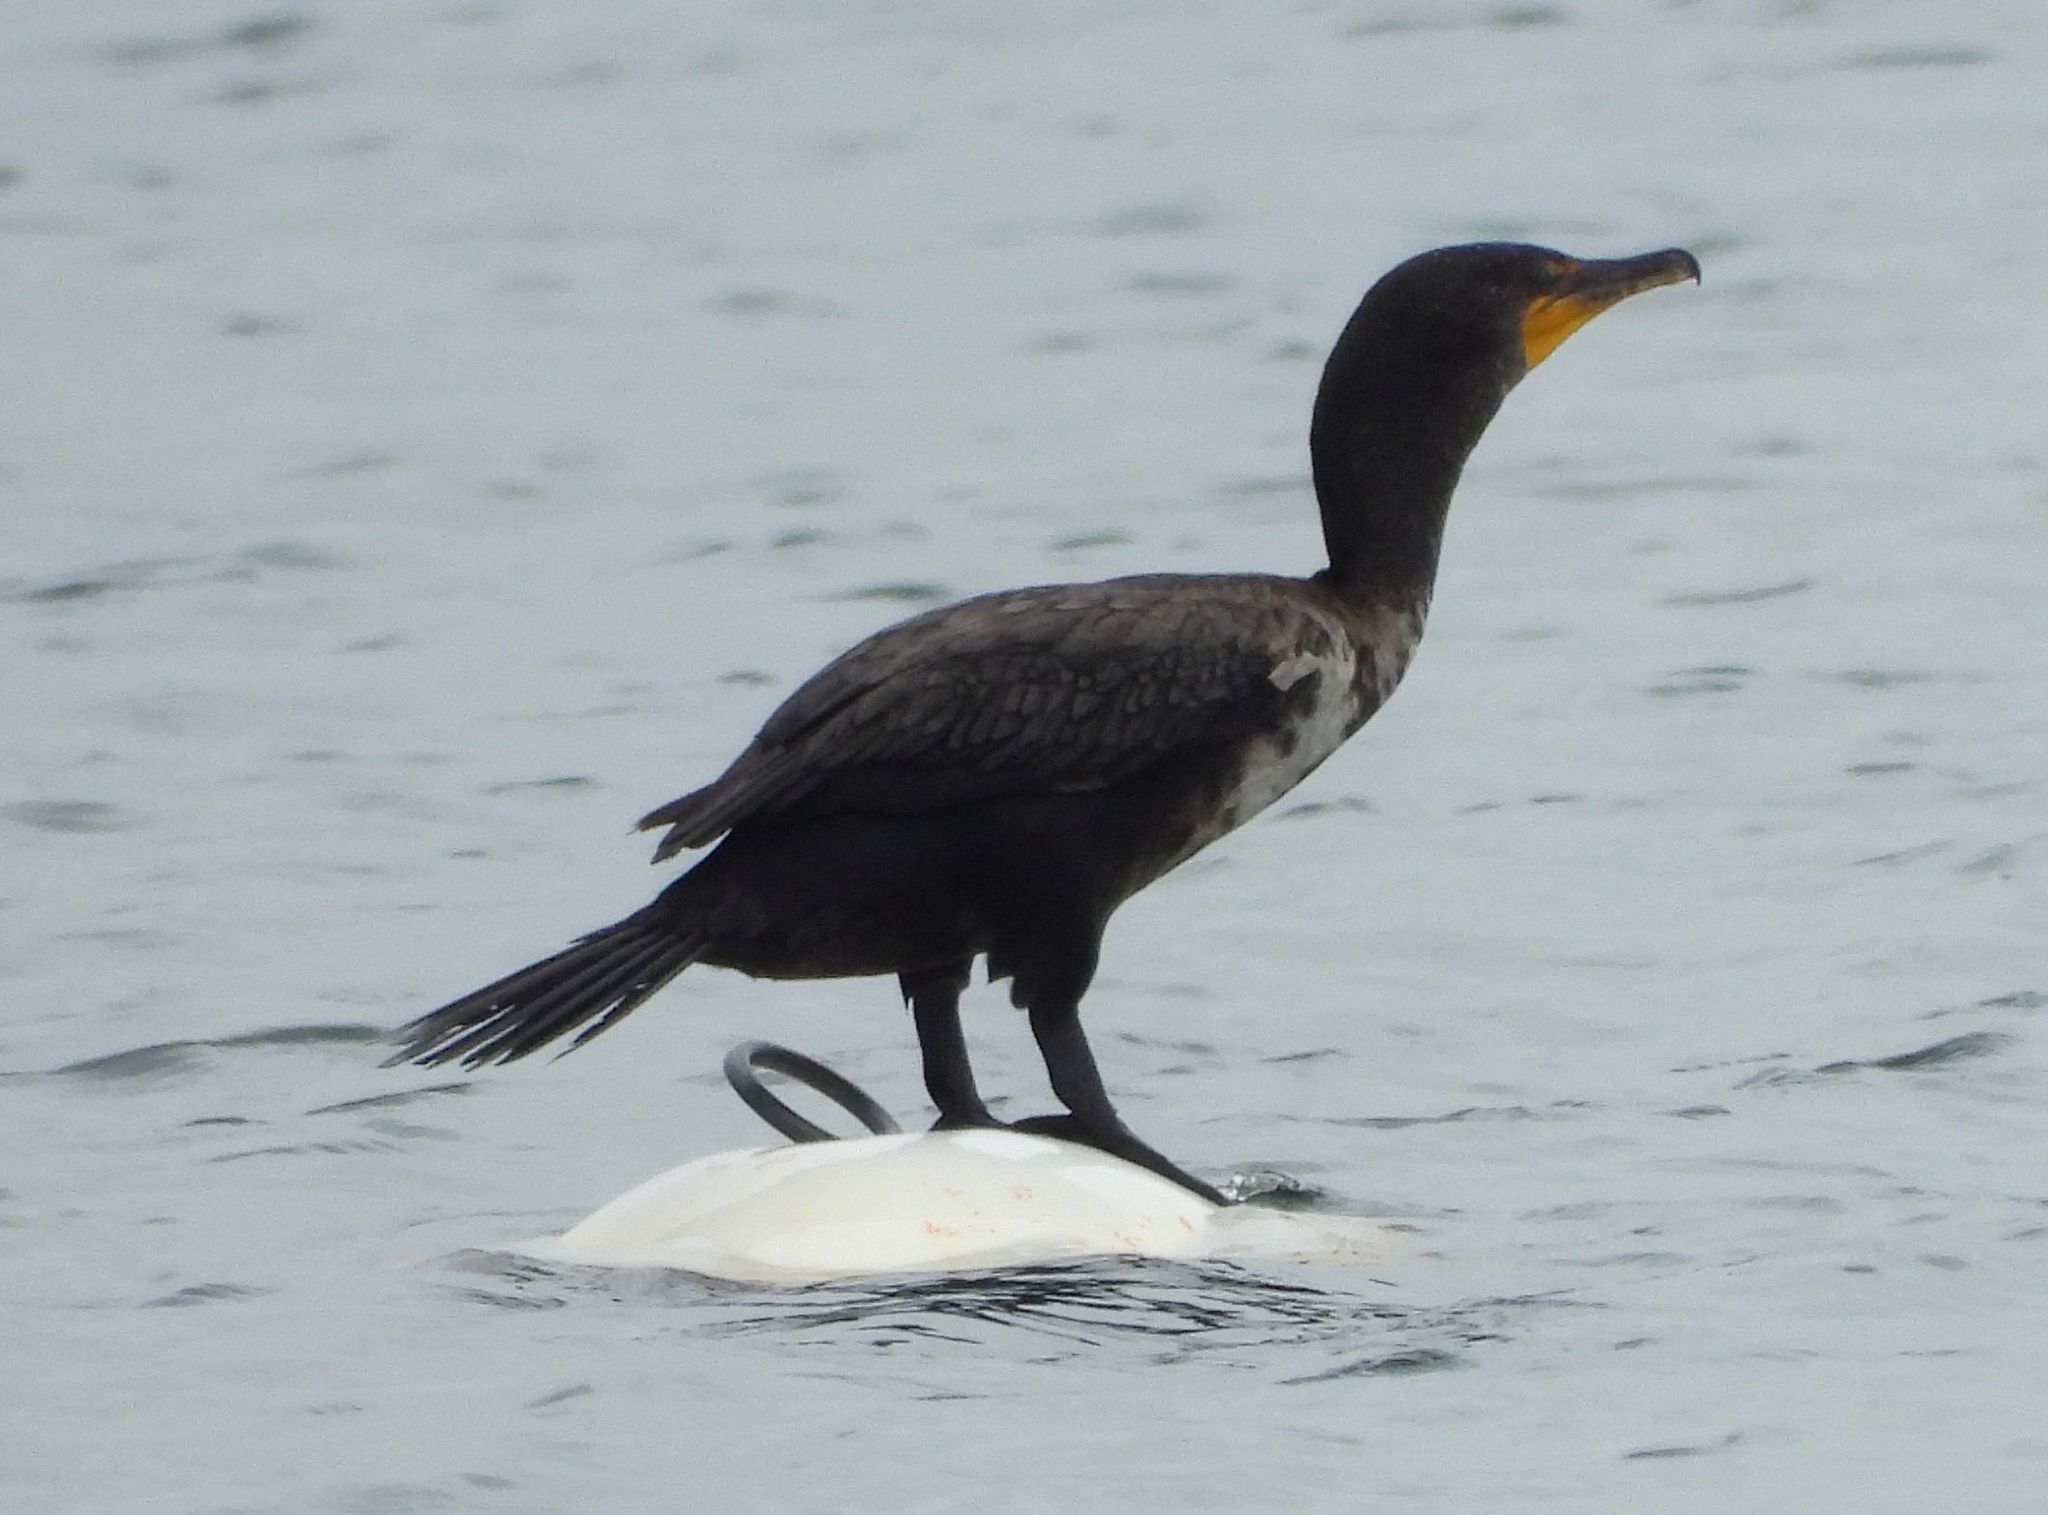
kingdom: Animalia
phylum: Chordata
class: Aves
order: Suliformes
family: Phalacrocoracidae
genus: Phalacrocorax
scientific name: Phalacrocorax auritus
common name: Double-crested cormorant
